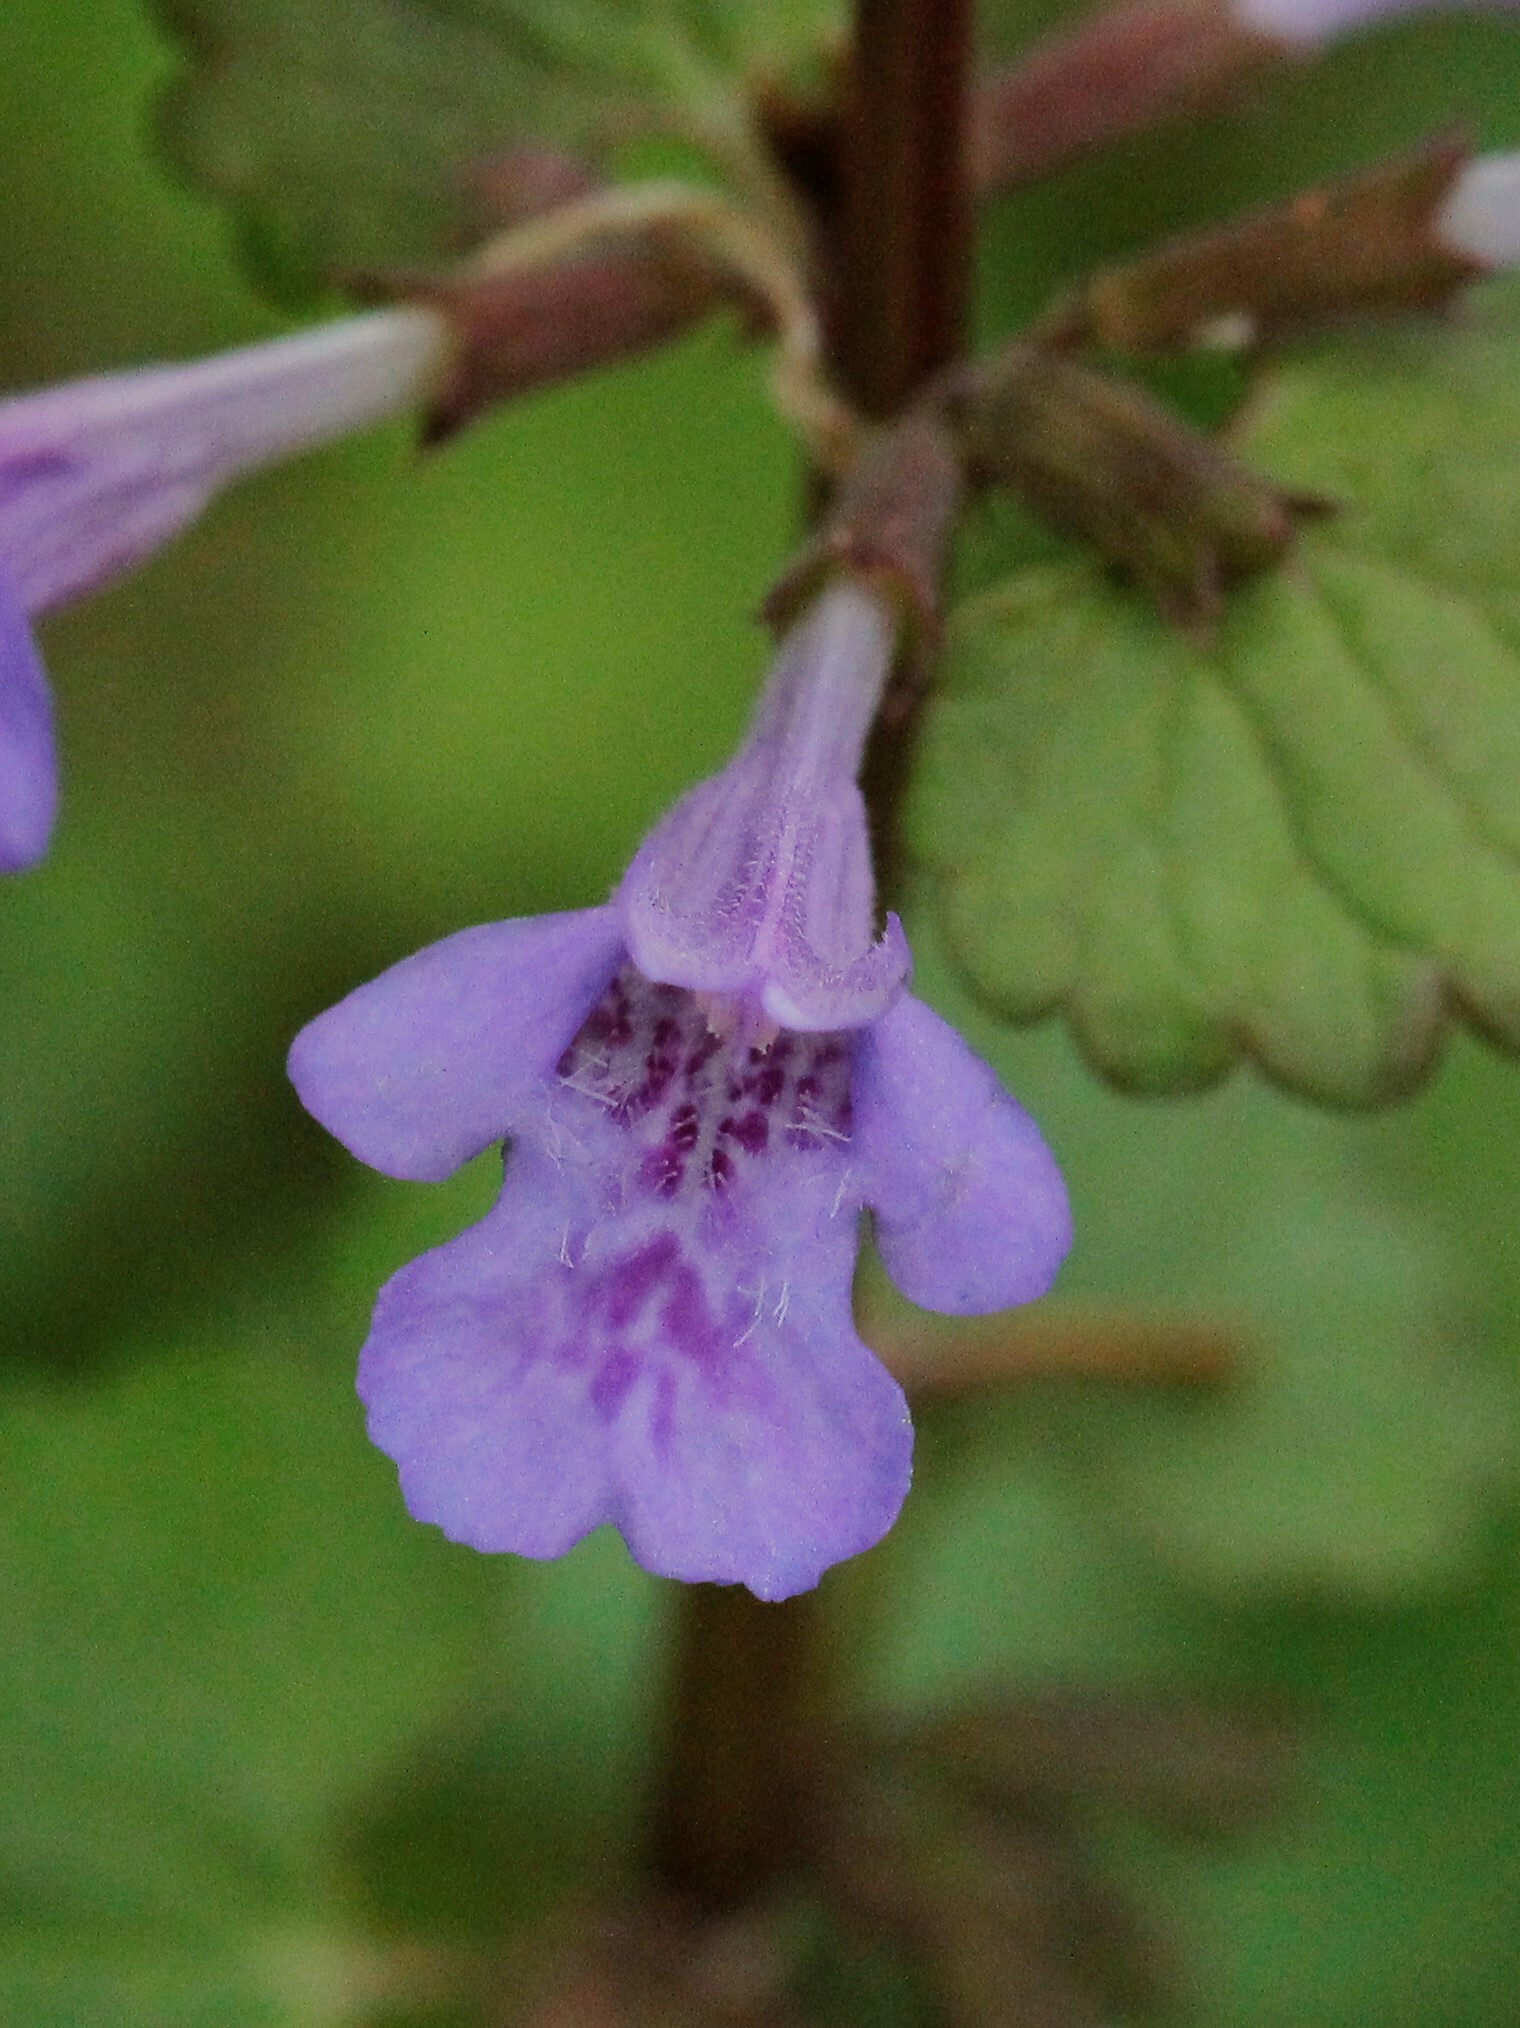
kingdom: Plantae
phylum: Tracheophyta
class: Magnoliopsida
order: Lamiales
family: Lamiaceae
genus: Glechoma
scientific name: Glechoma hederacea
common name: Ground ivy
